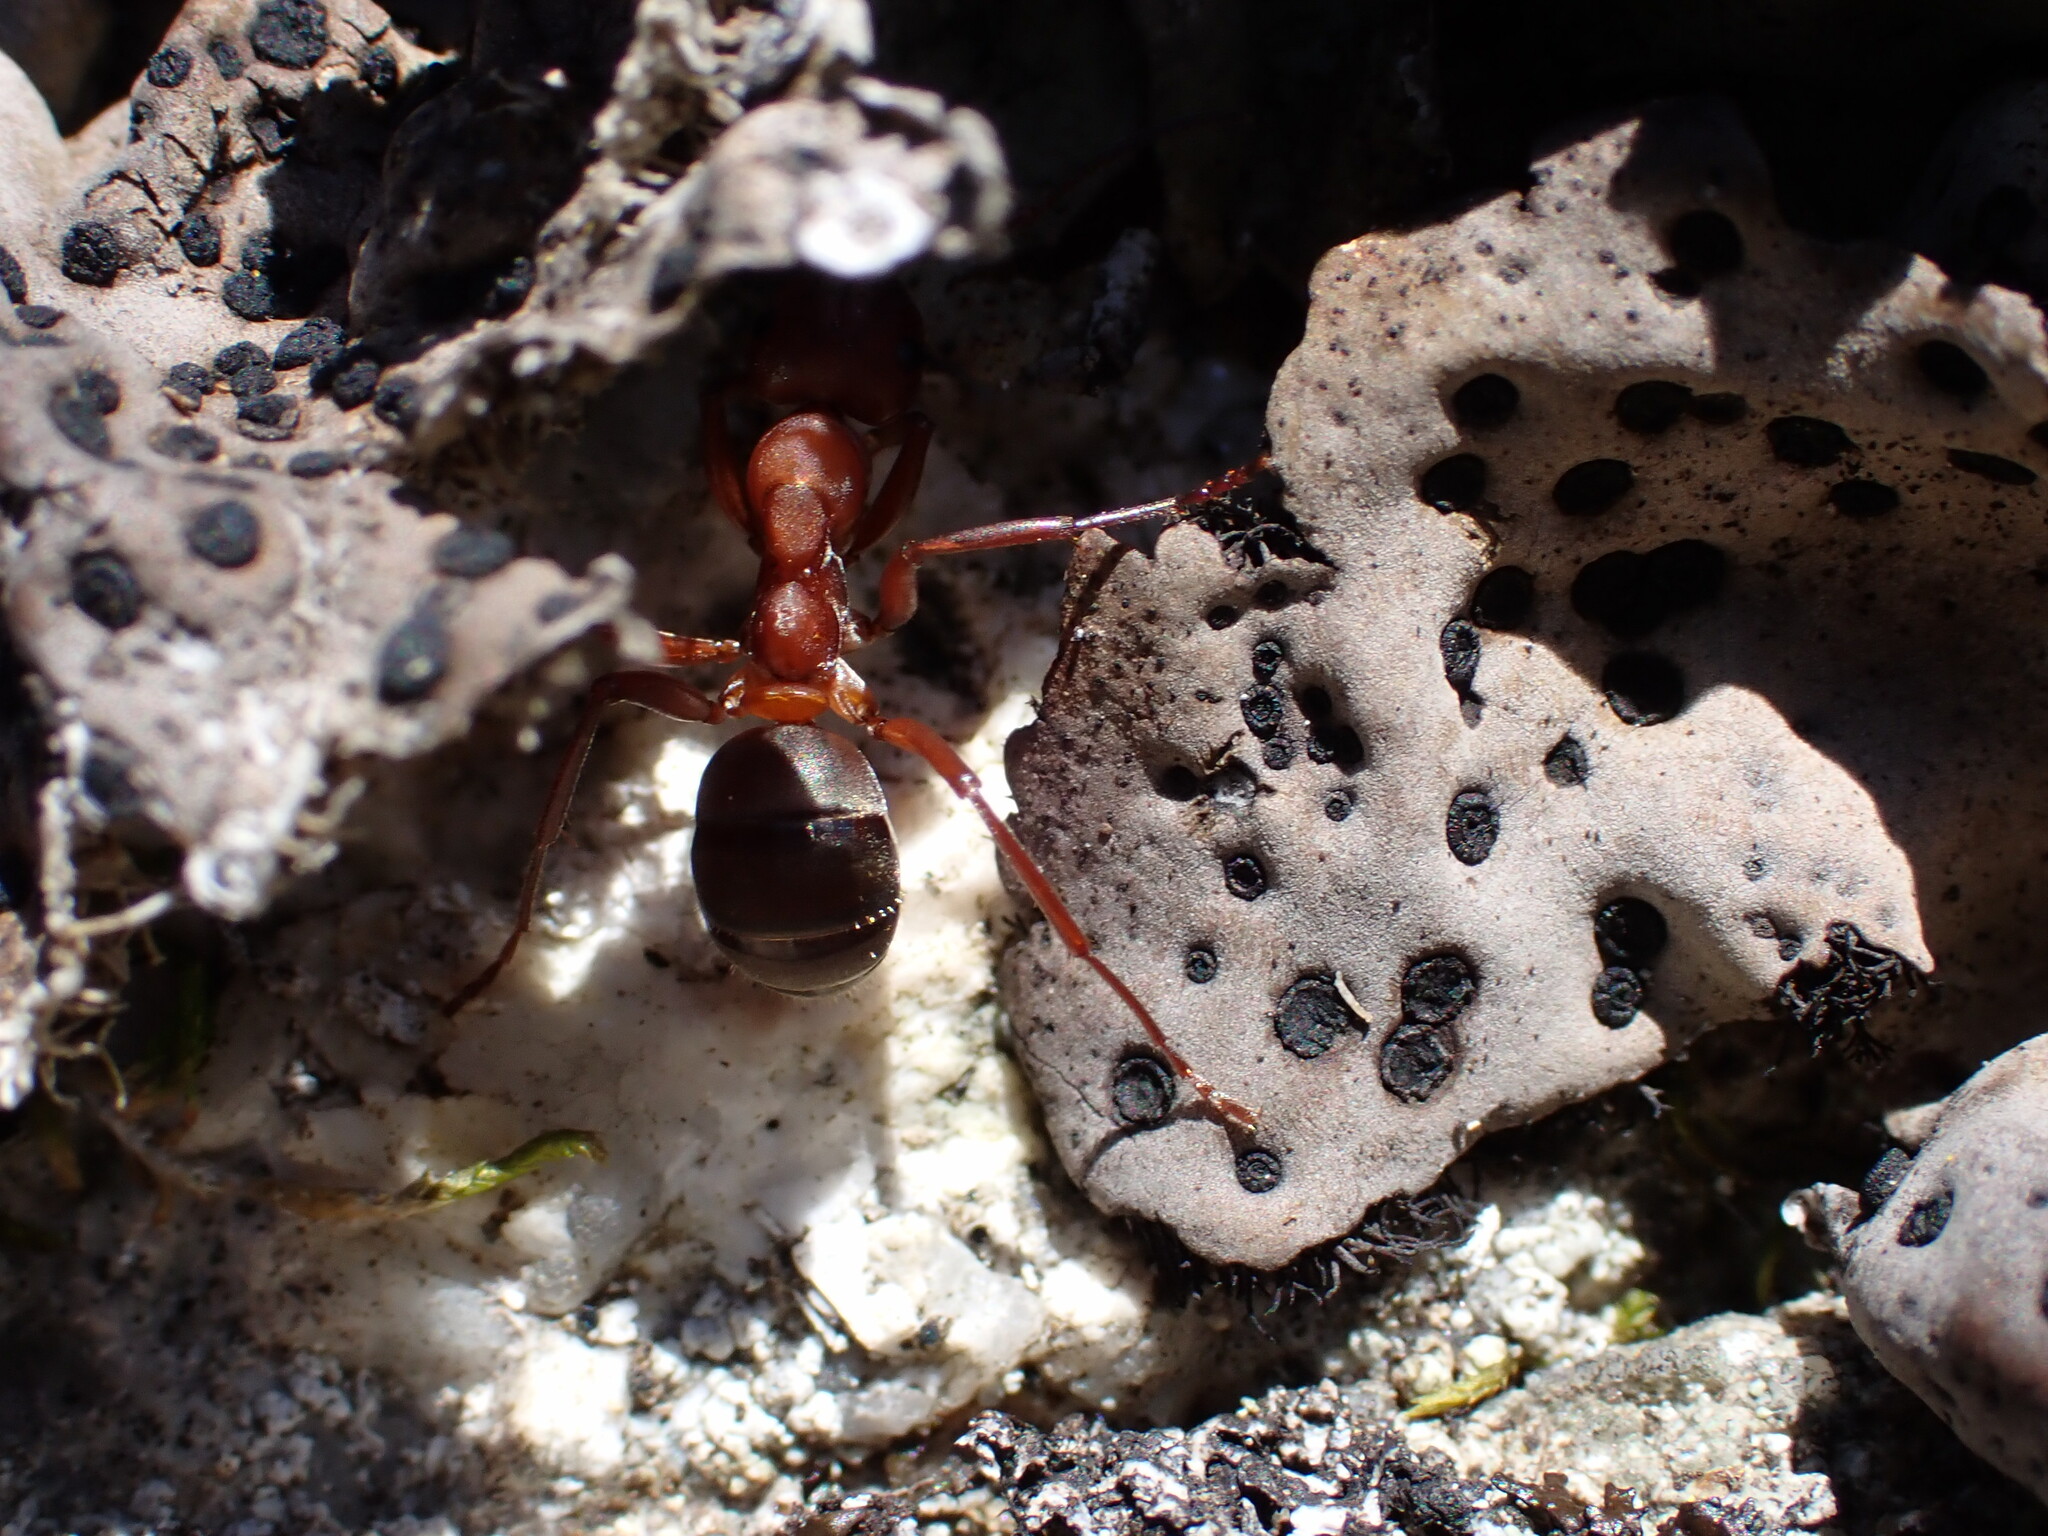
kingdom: Animalia
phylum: Arthropoda
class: Insecta
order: Hymenoptera
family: Formicidae
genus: Formica
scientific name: Formica sanguinea
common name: Blood-red ant
